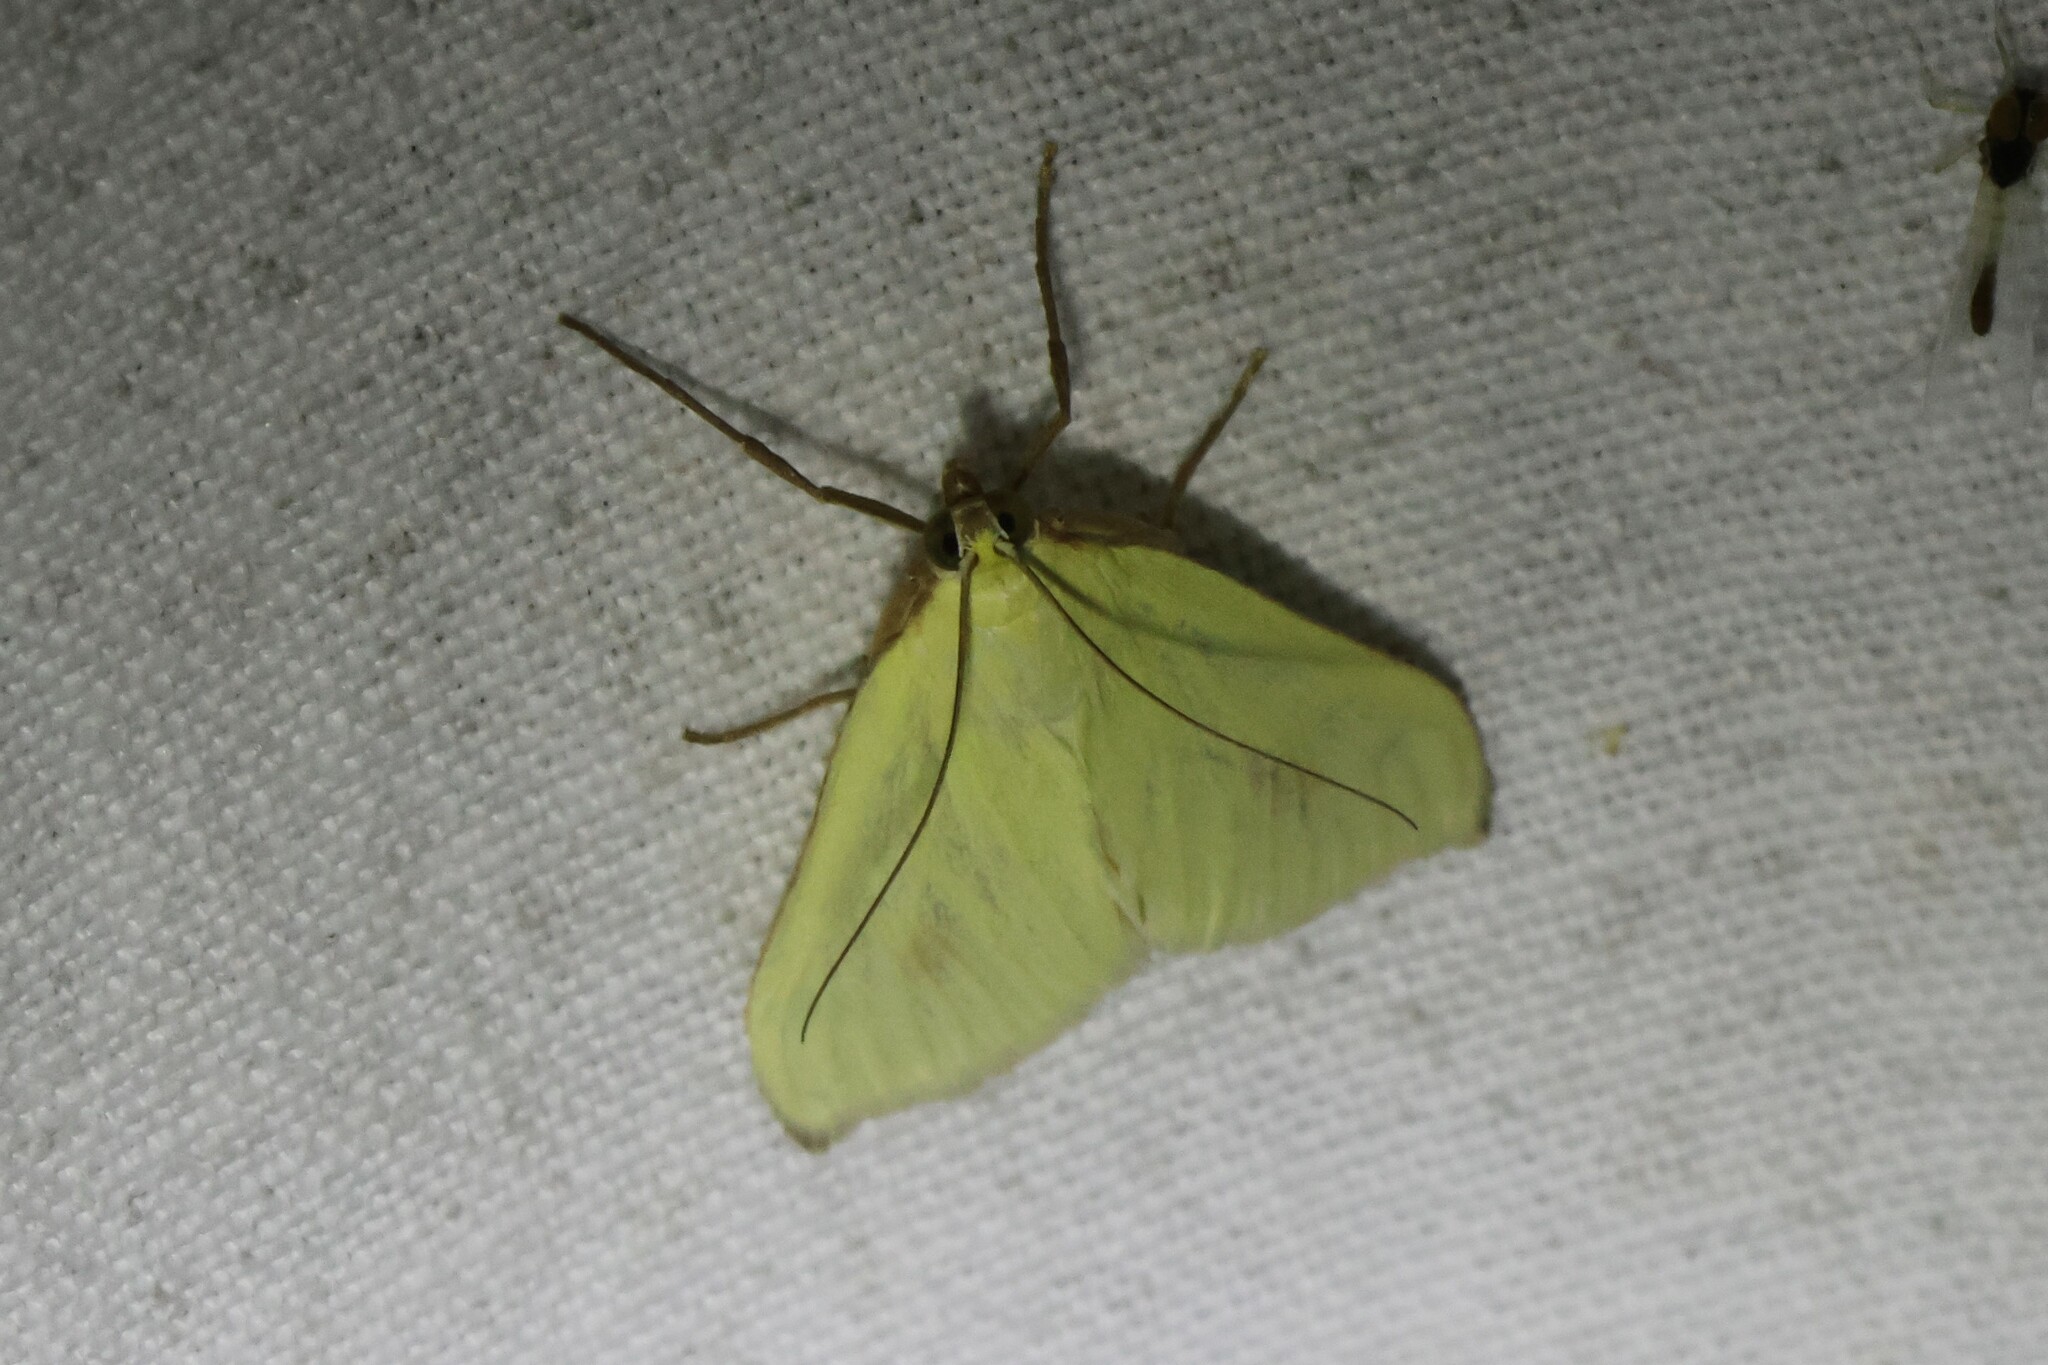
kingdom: Animalia
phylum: Arthropoda
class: Insecta
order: Lepidoptera
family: Crambidae
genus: Sitochroa
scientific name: Sitochroa palealis
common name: Greenish-yellow sitochroa moth
